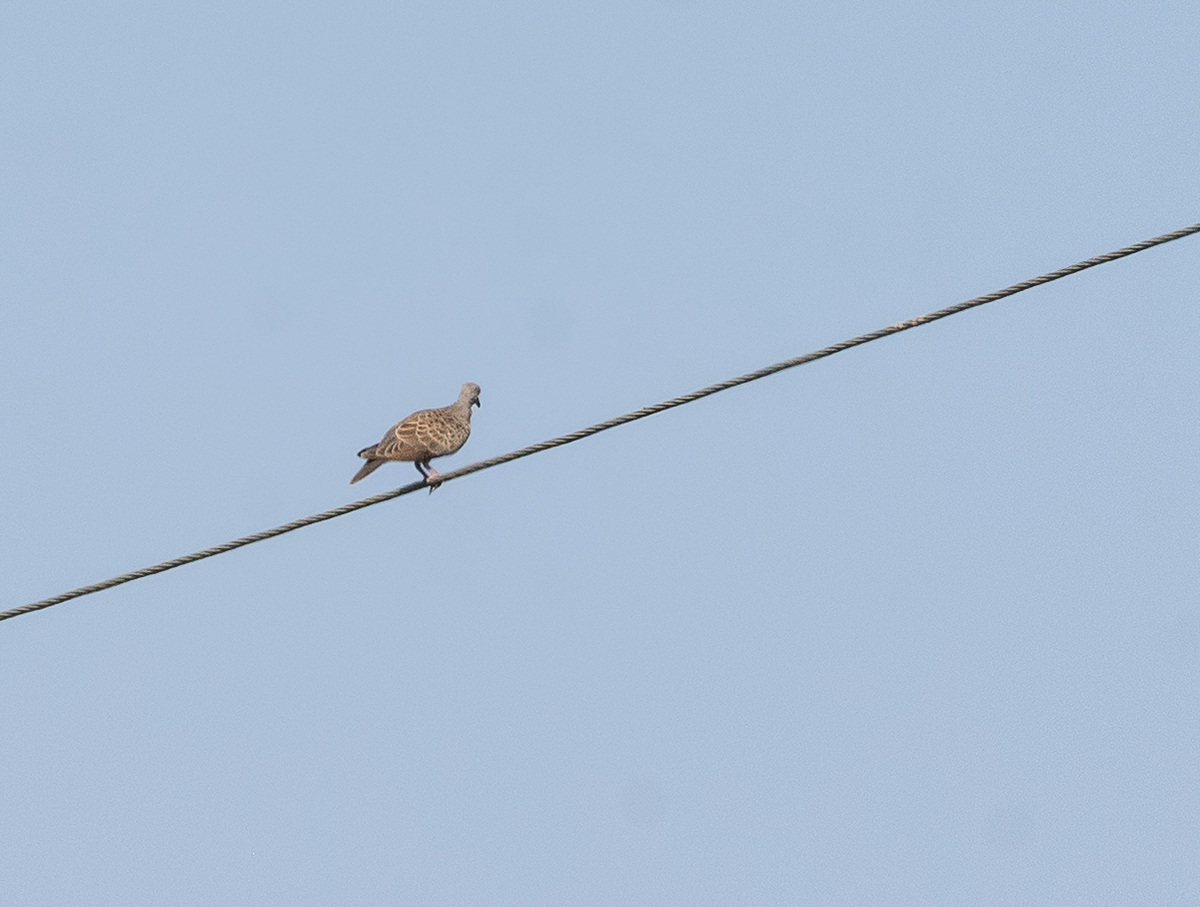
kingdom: Animalia
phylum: Chordata
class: Aves
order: Columbiformes
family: Columbidae
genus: Streptopelia
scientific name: Streptopelia turtur
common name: European turtle dove
